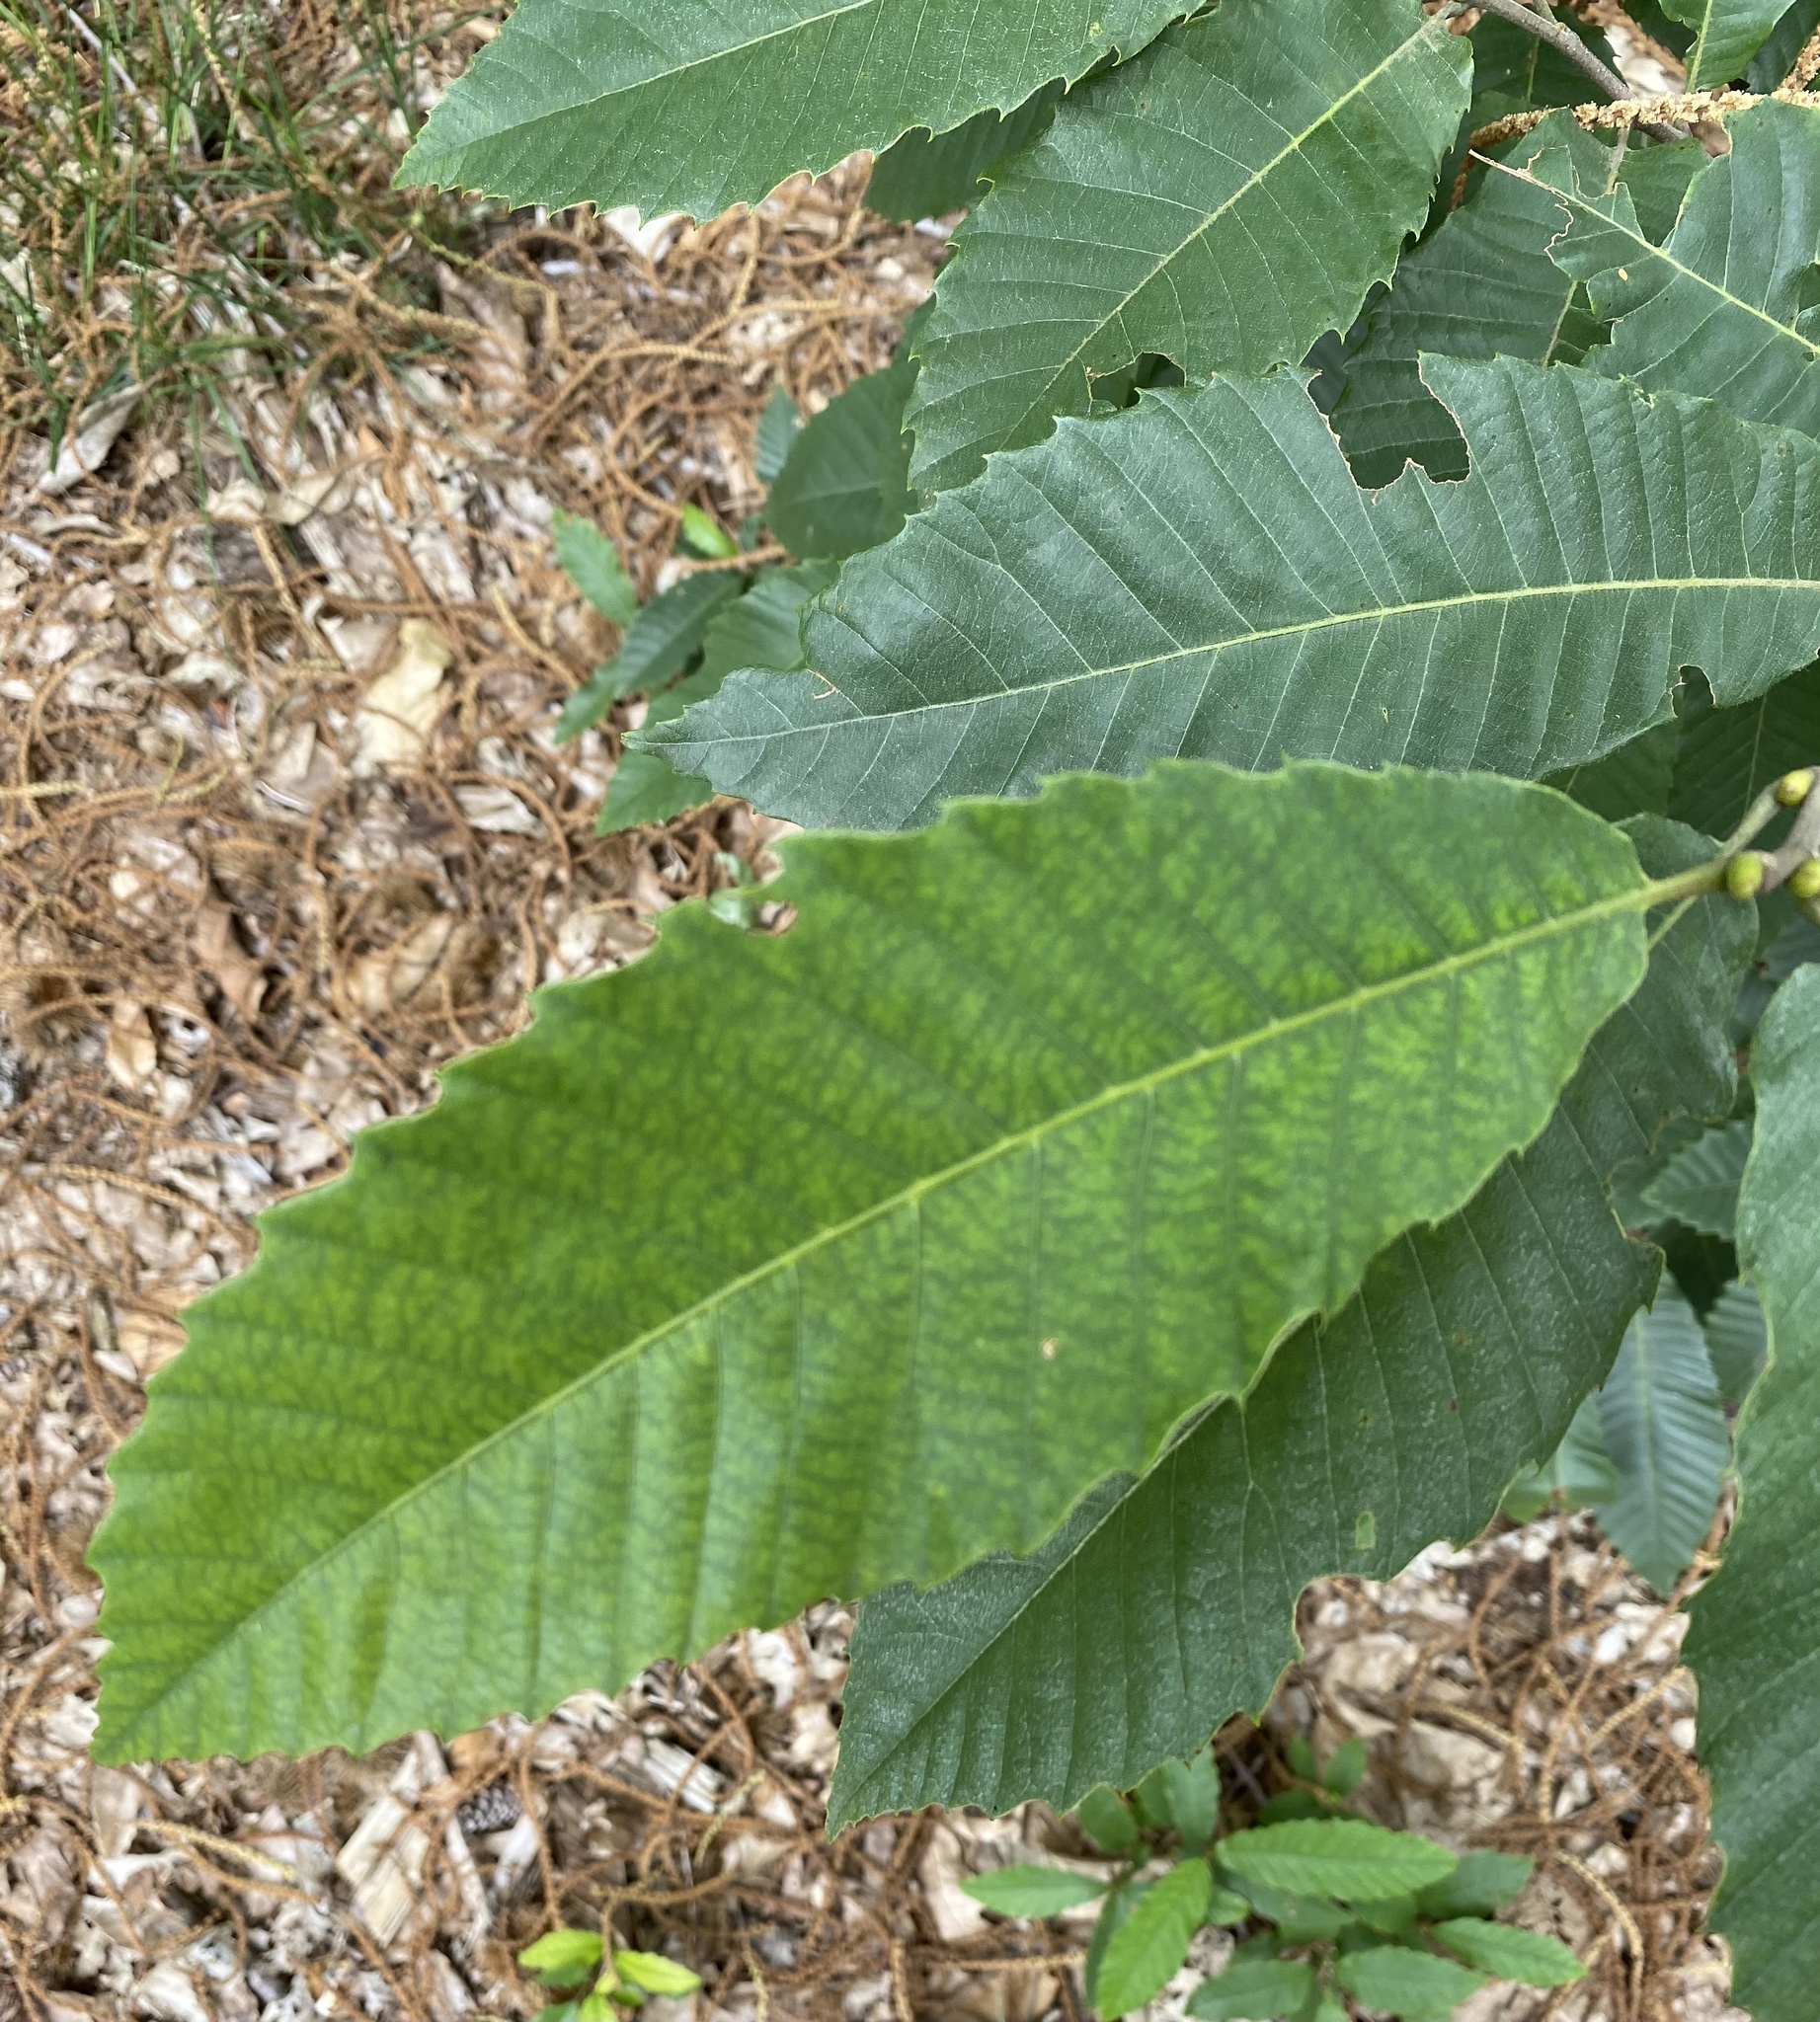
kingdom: Plantae
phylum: Tracheophyta
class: Magnoliopsida
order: Fagales
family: Fagaceae
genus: Castanea
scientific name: Castanea sativa
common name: Sweet chestnut
